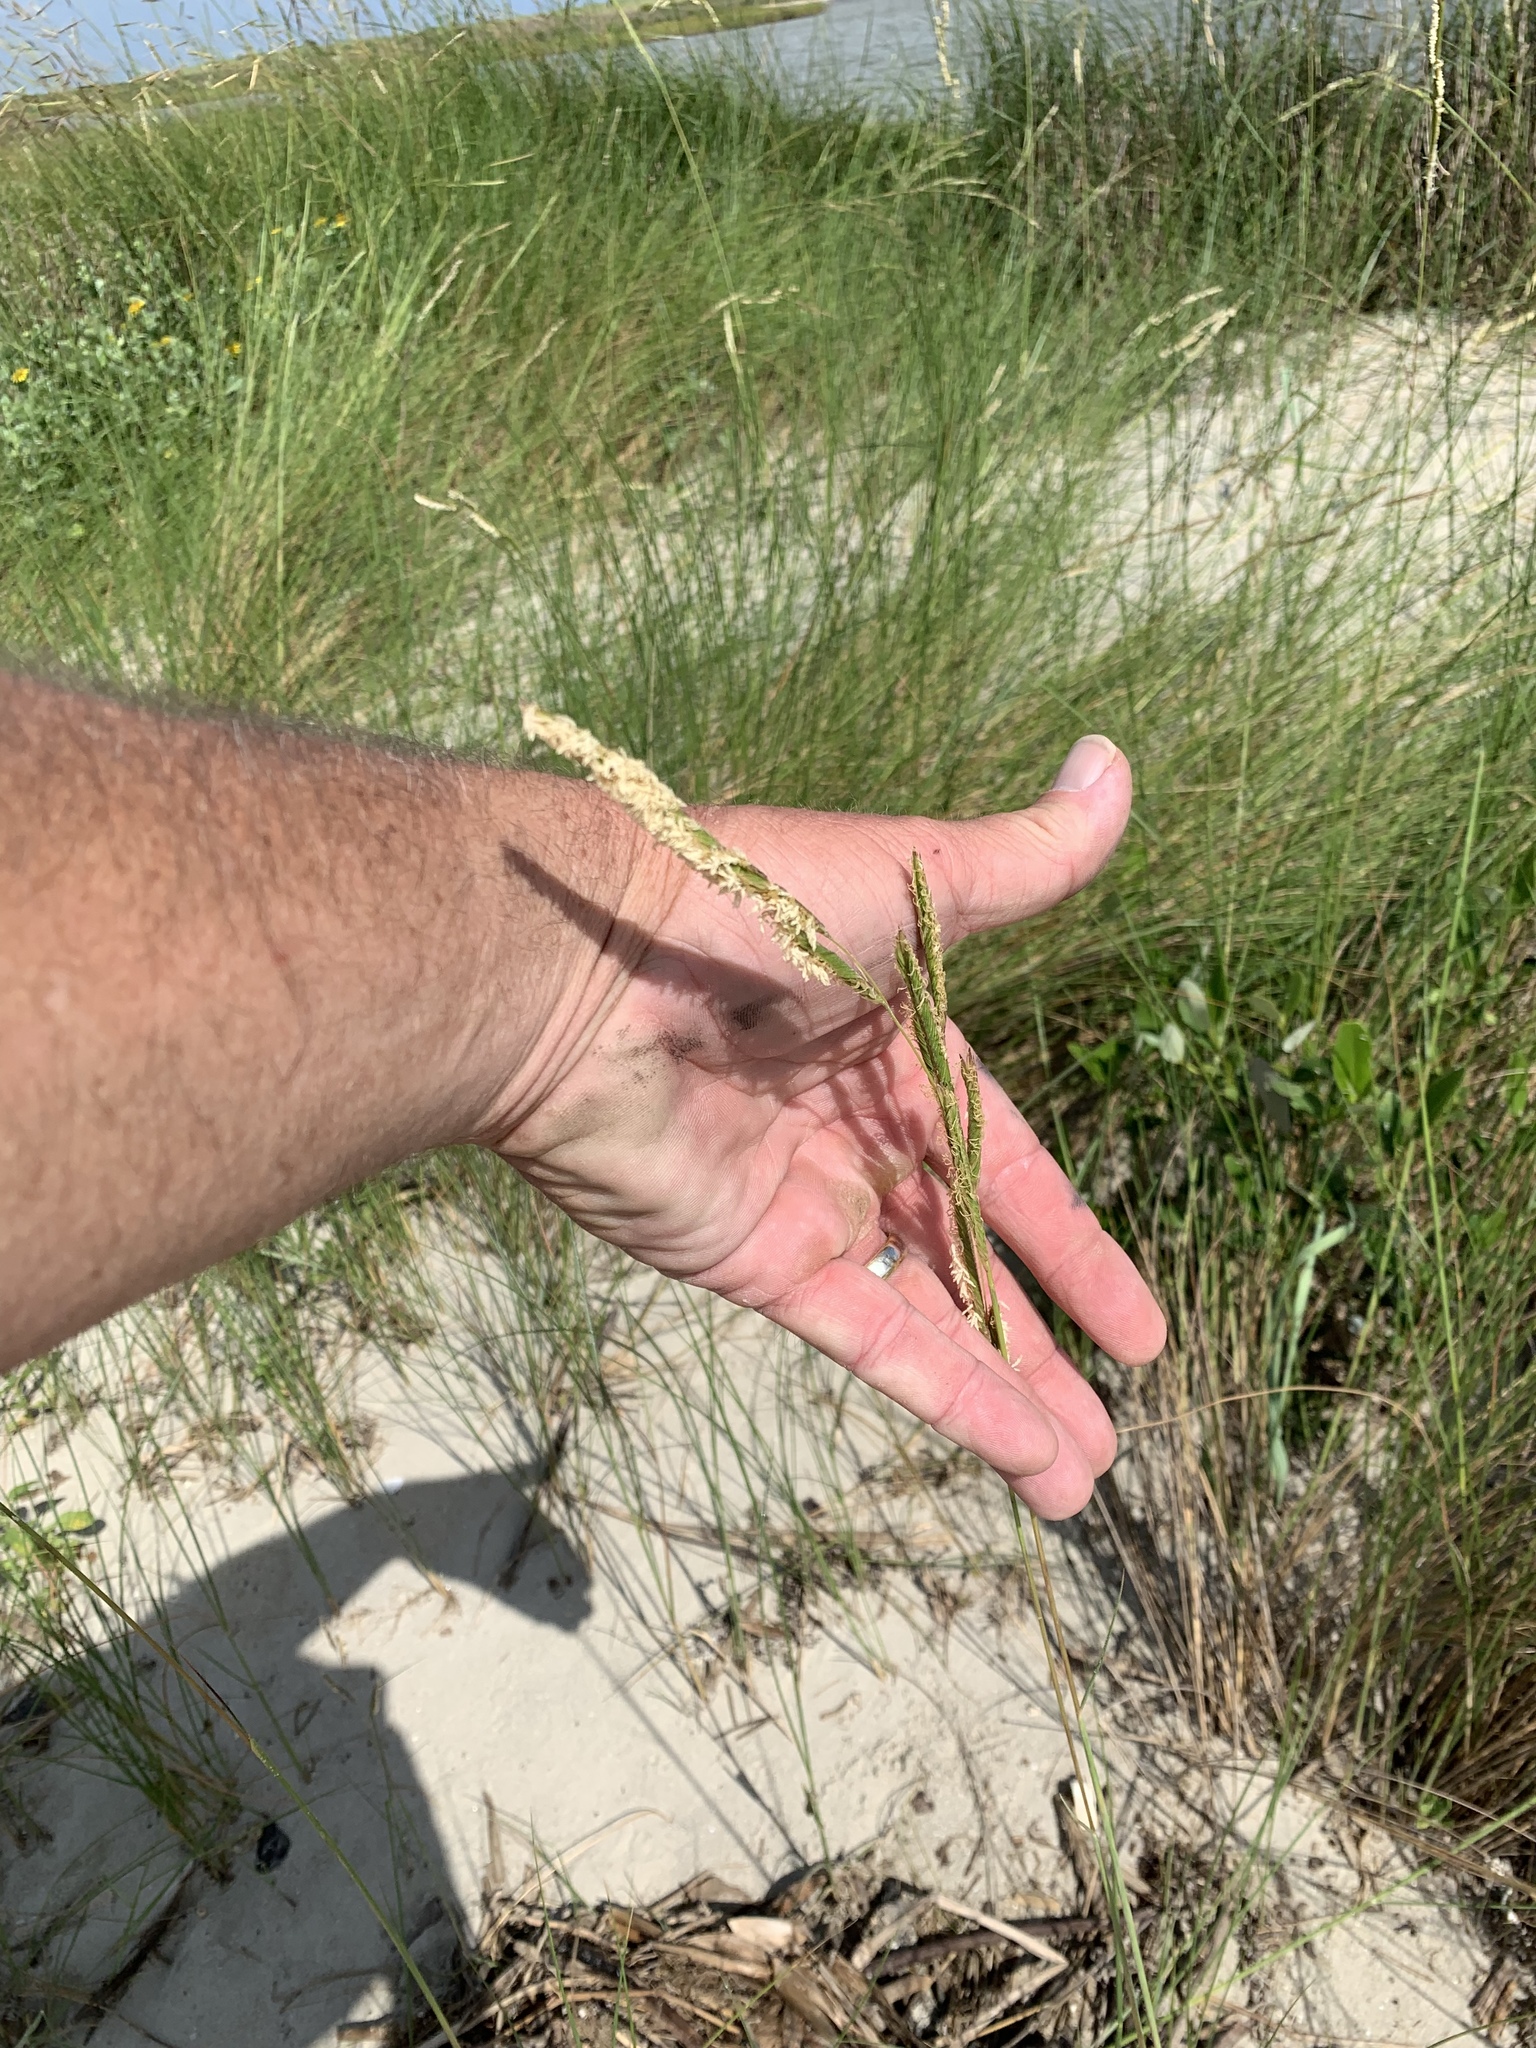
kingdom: Plantae
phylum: Tracheophyta
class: Liliopsida
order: Poales
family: Poaceae
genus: Sporobolus
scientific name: Sporobolus spartinae
